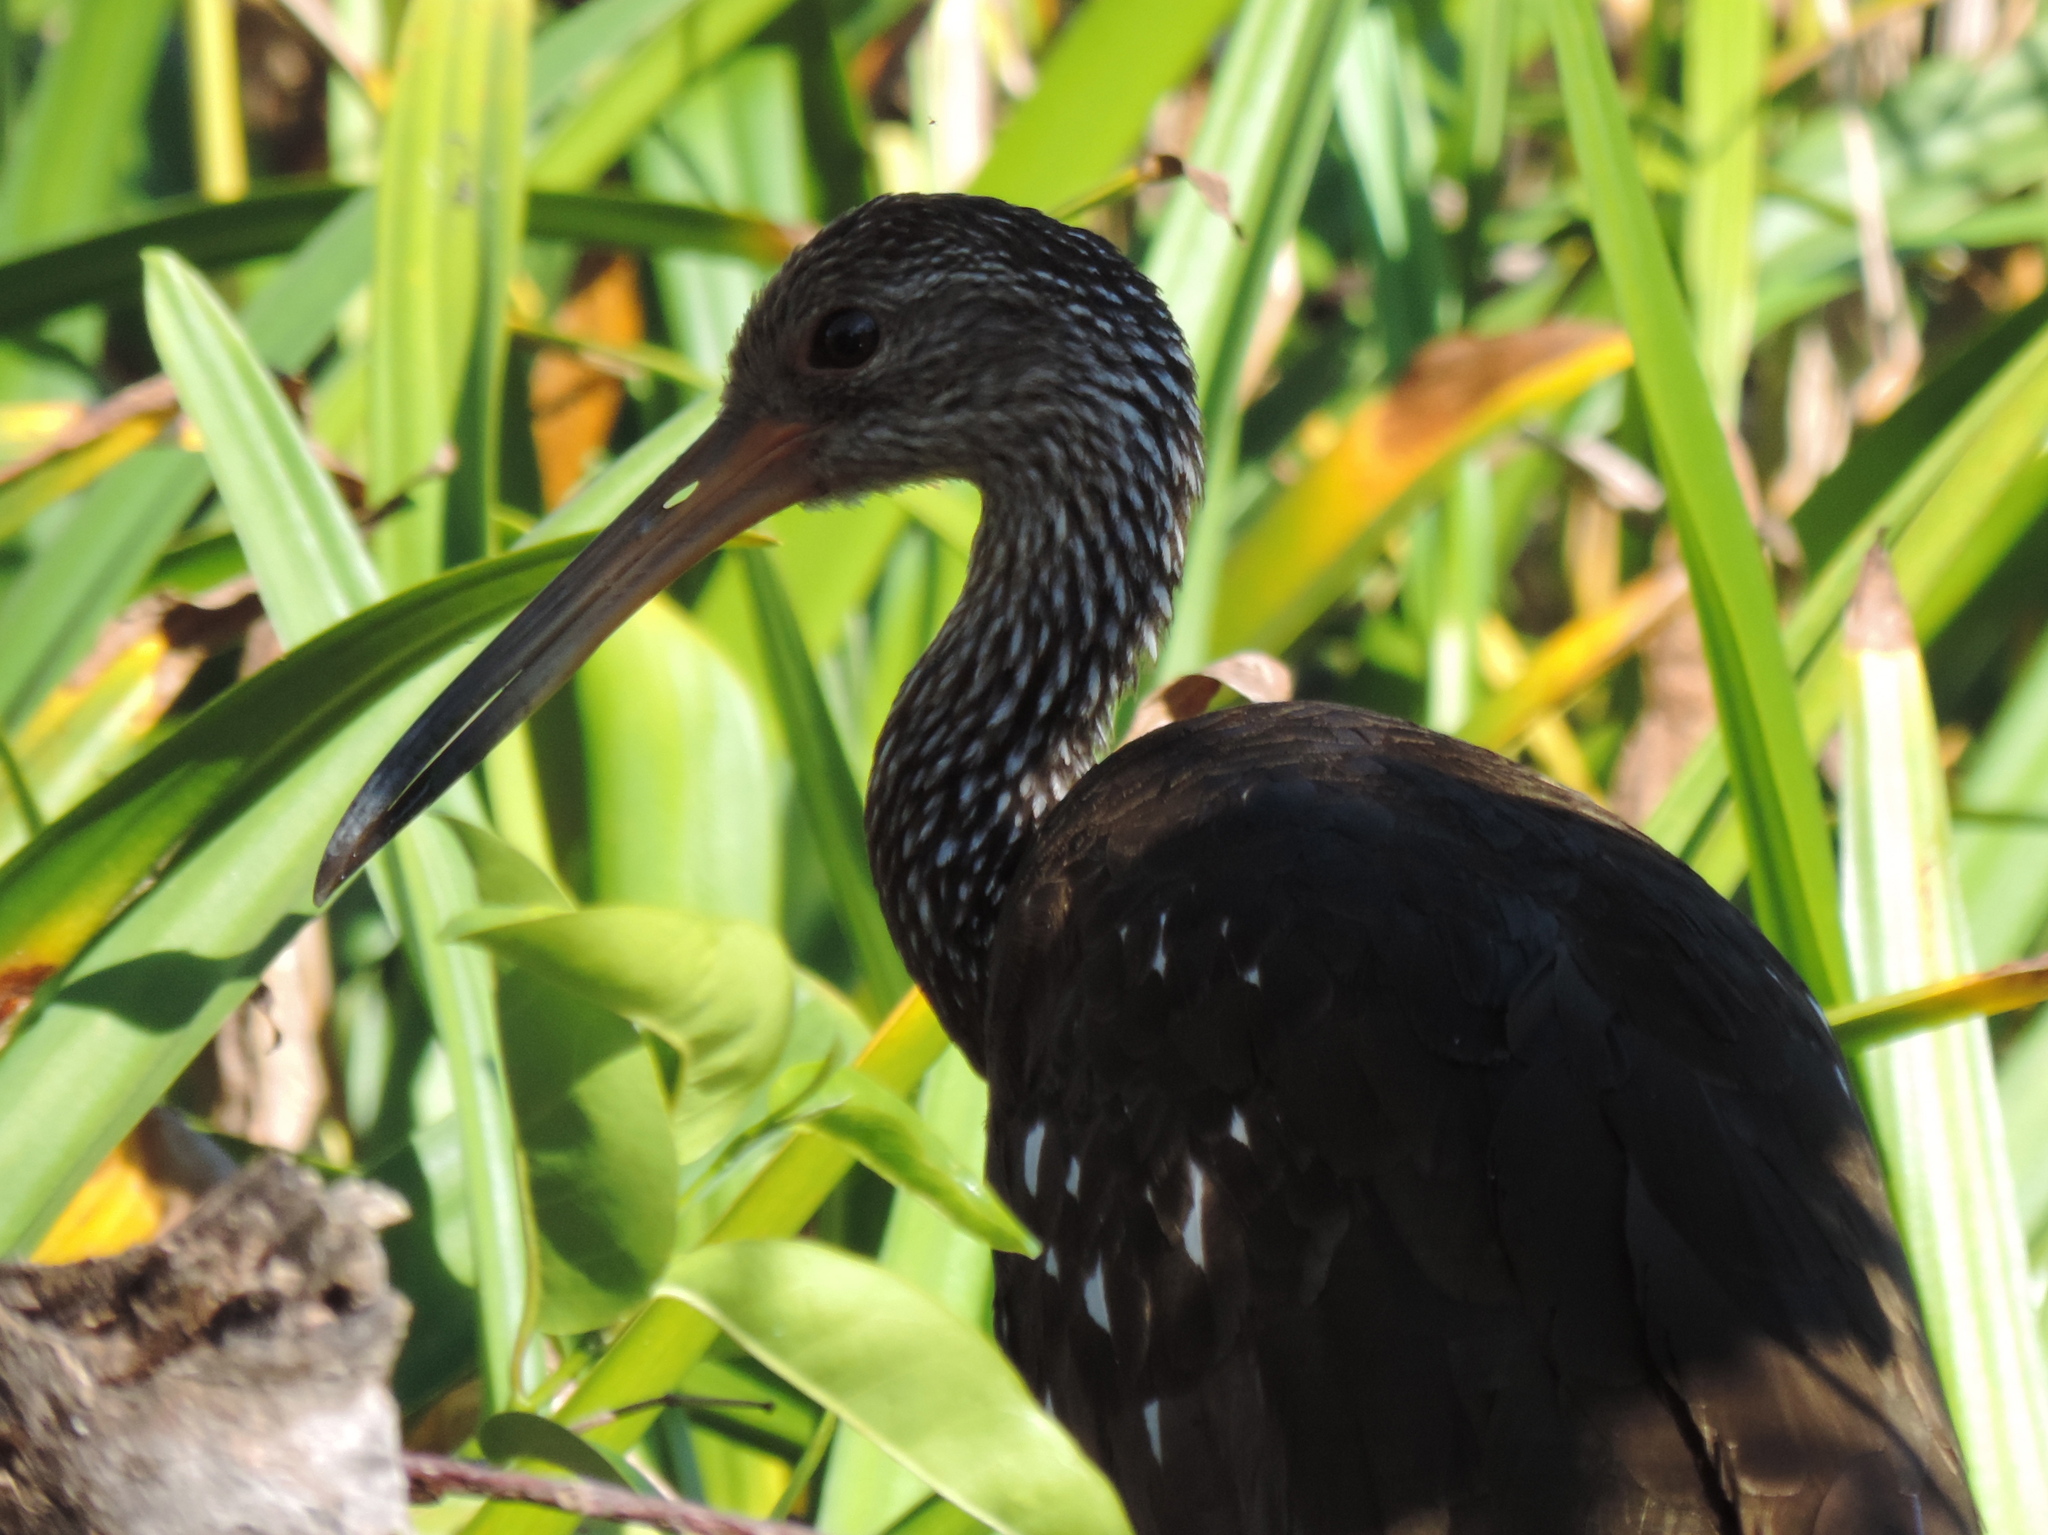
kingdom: Animalia
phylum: Chordata
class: Aves
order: Gruiformes
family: Aramidae
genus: Aramus
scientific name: Aramus guarauna
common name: Limpkin
